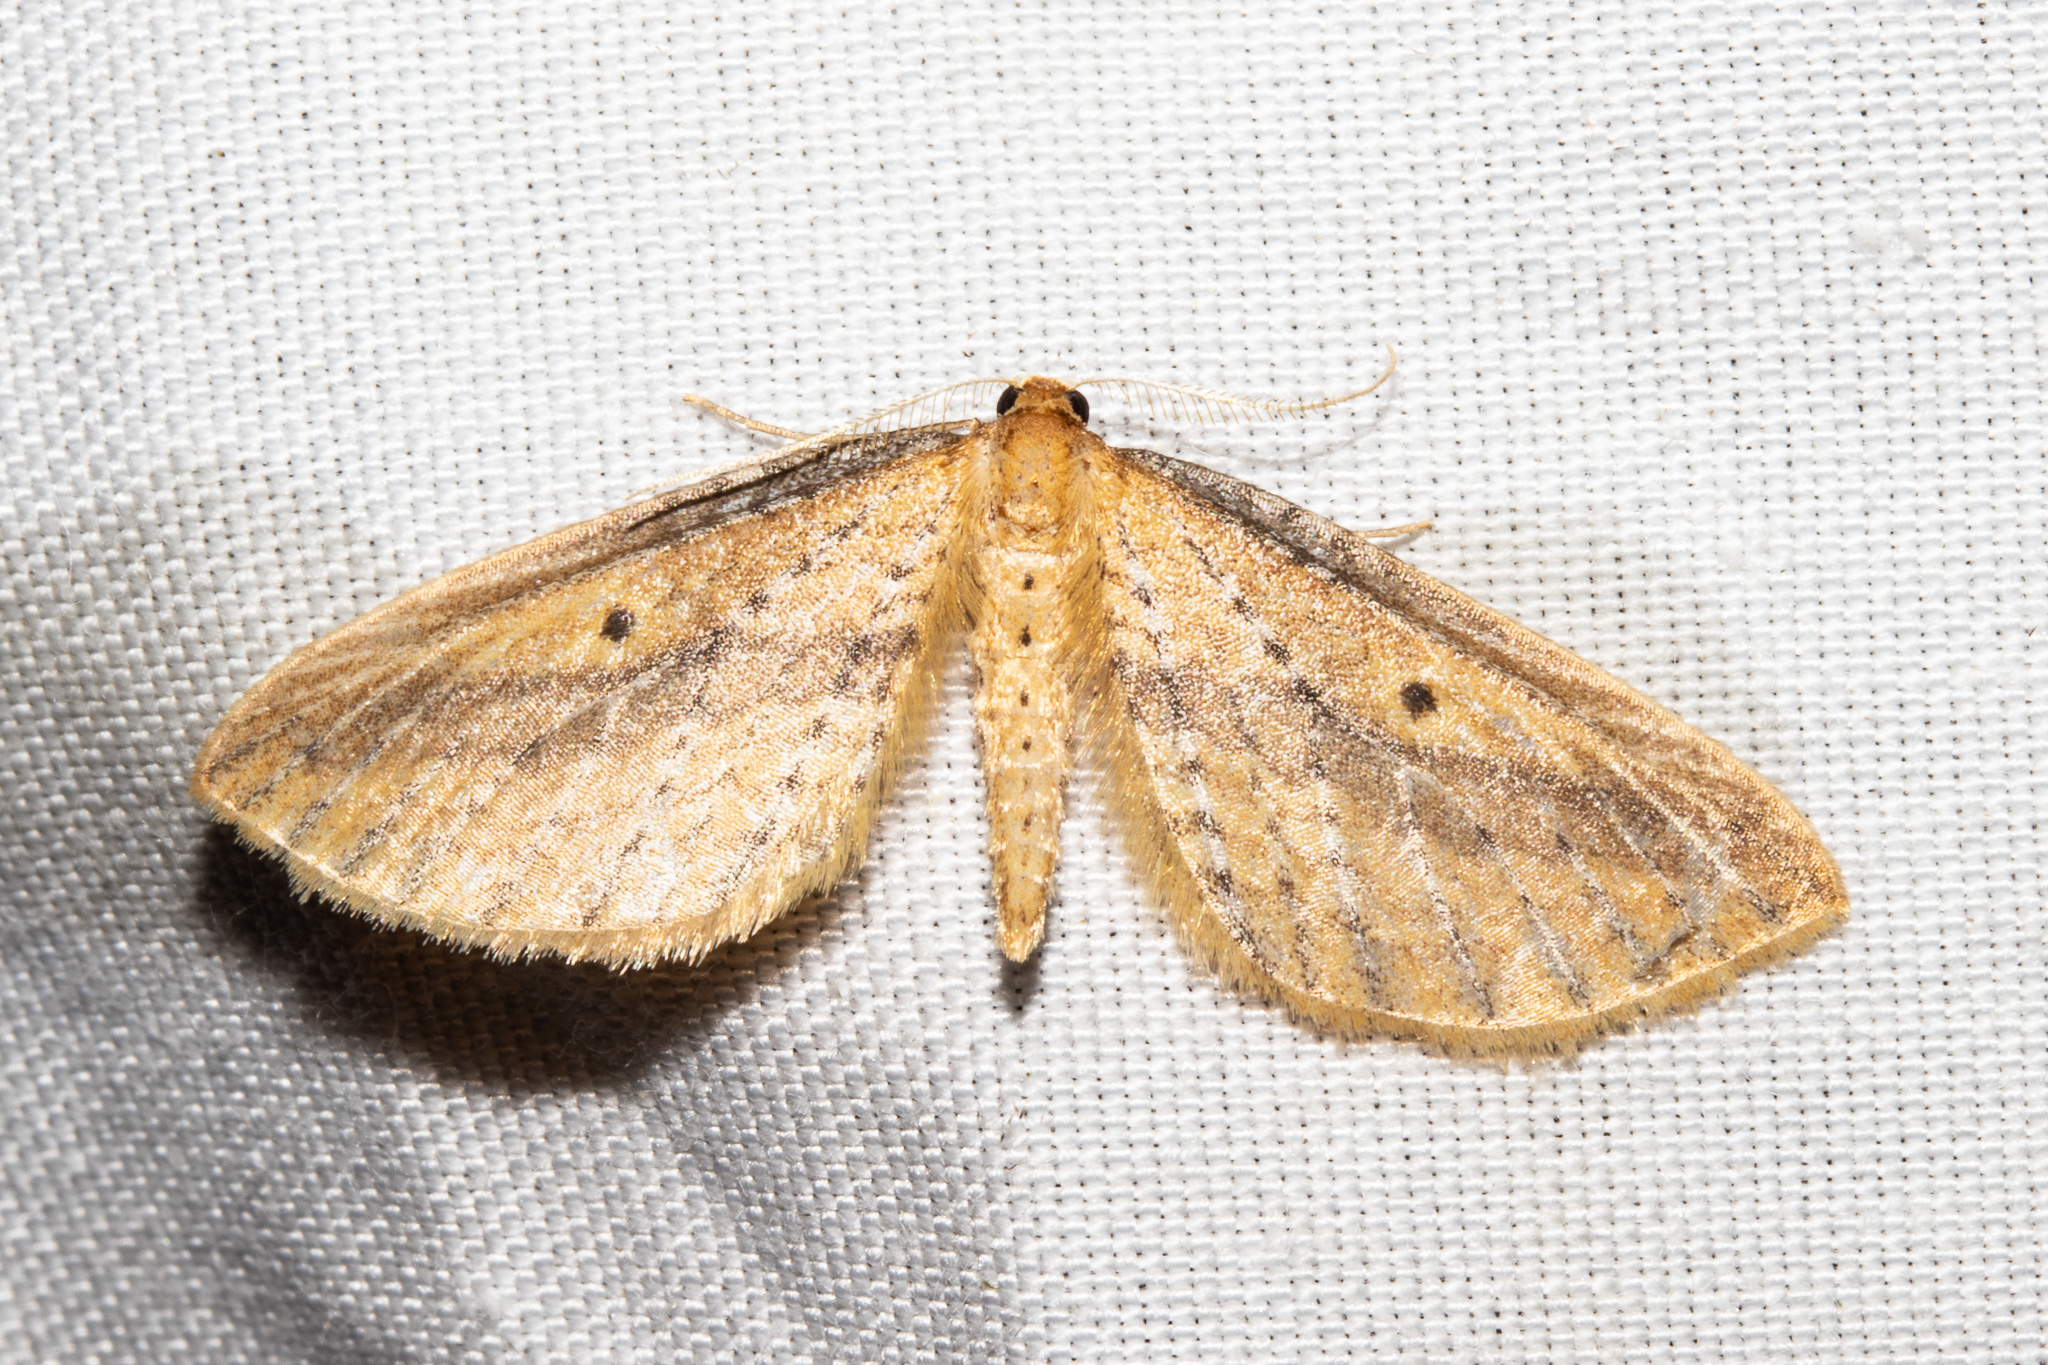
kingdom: Animalia
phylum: Arthropoda
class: Insecta
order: Lepidoptera
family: Geometridae
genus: Epiphryne
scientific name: Epiphryne charidema
